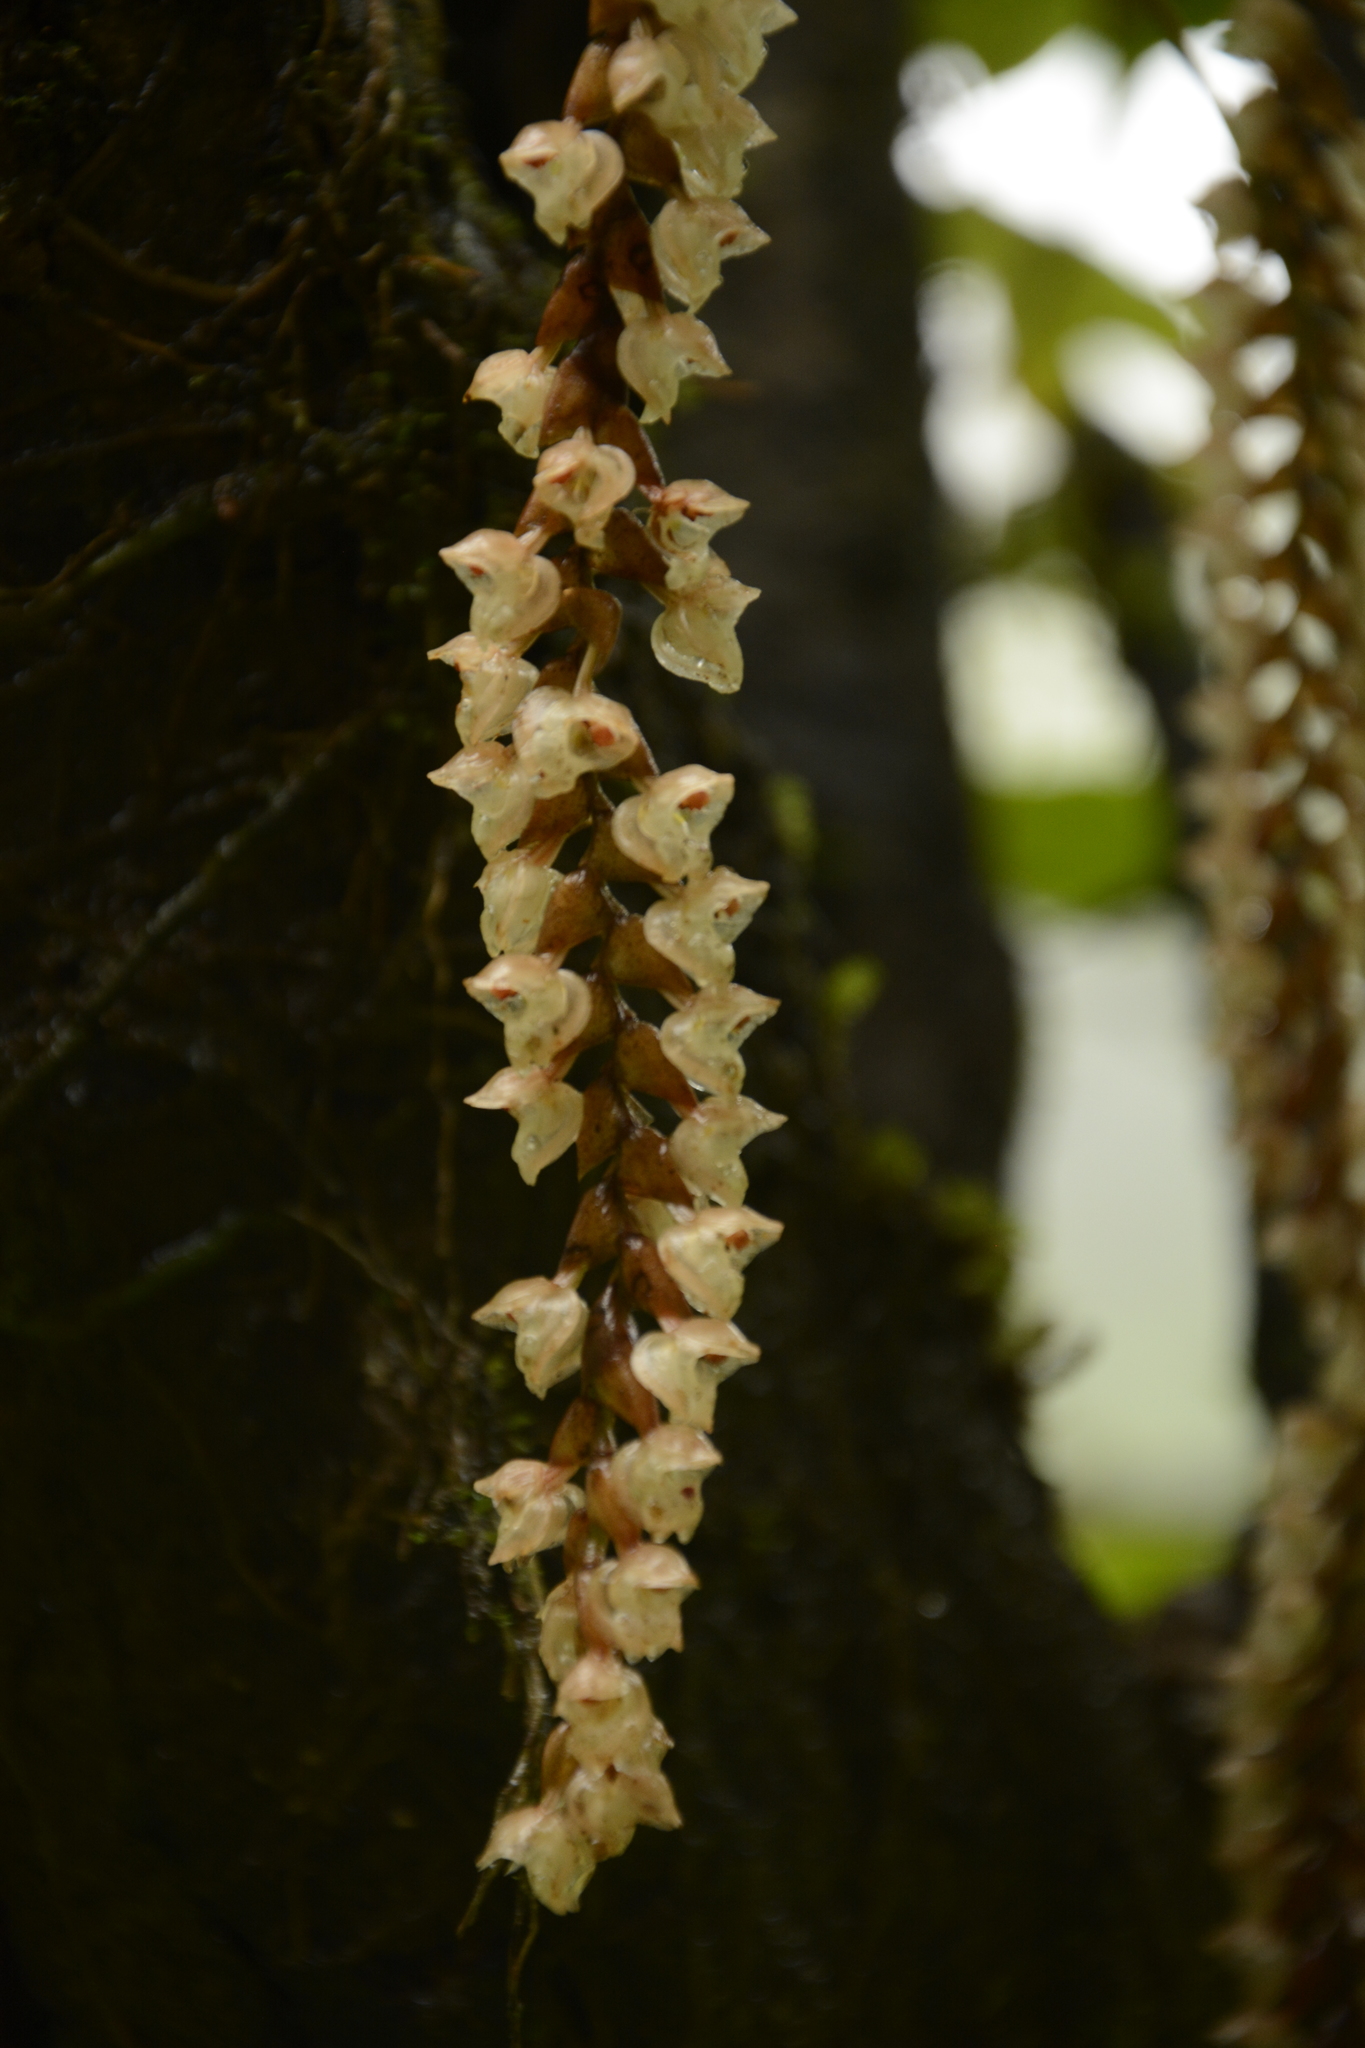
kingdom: Plantae
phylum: Tracheophyta
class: Liliopsida
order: Asparagales
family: Orchidaceae
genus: Coelogyne
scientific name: Coelogyne pallida
